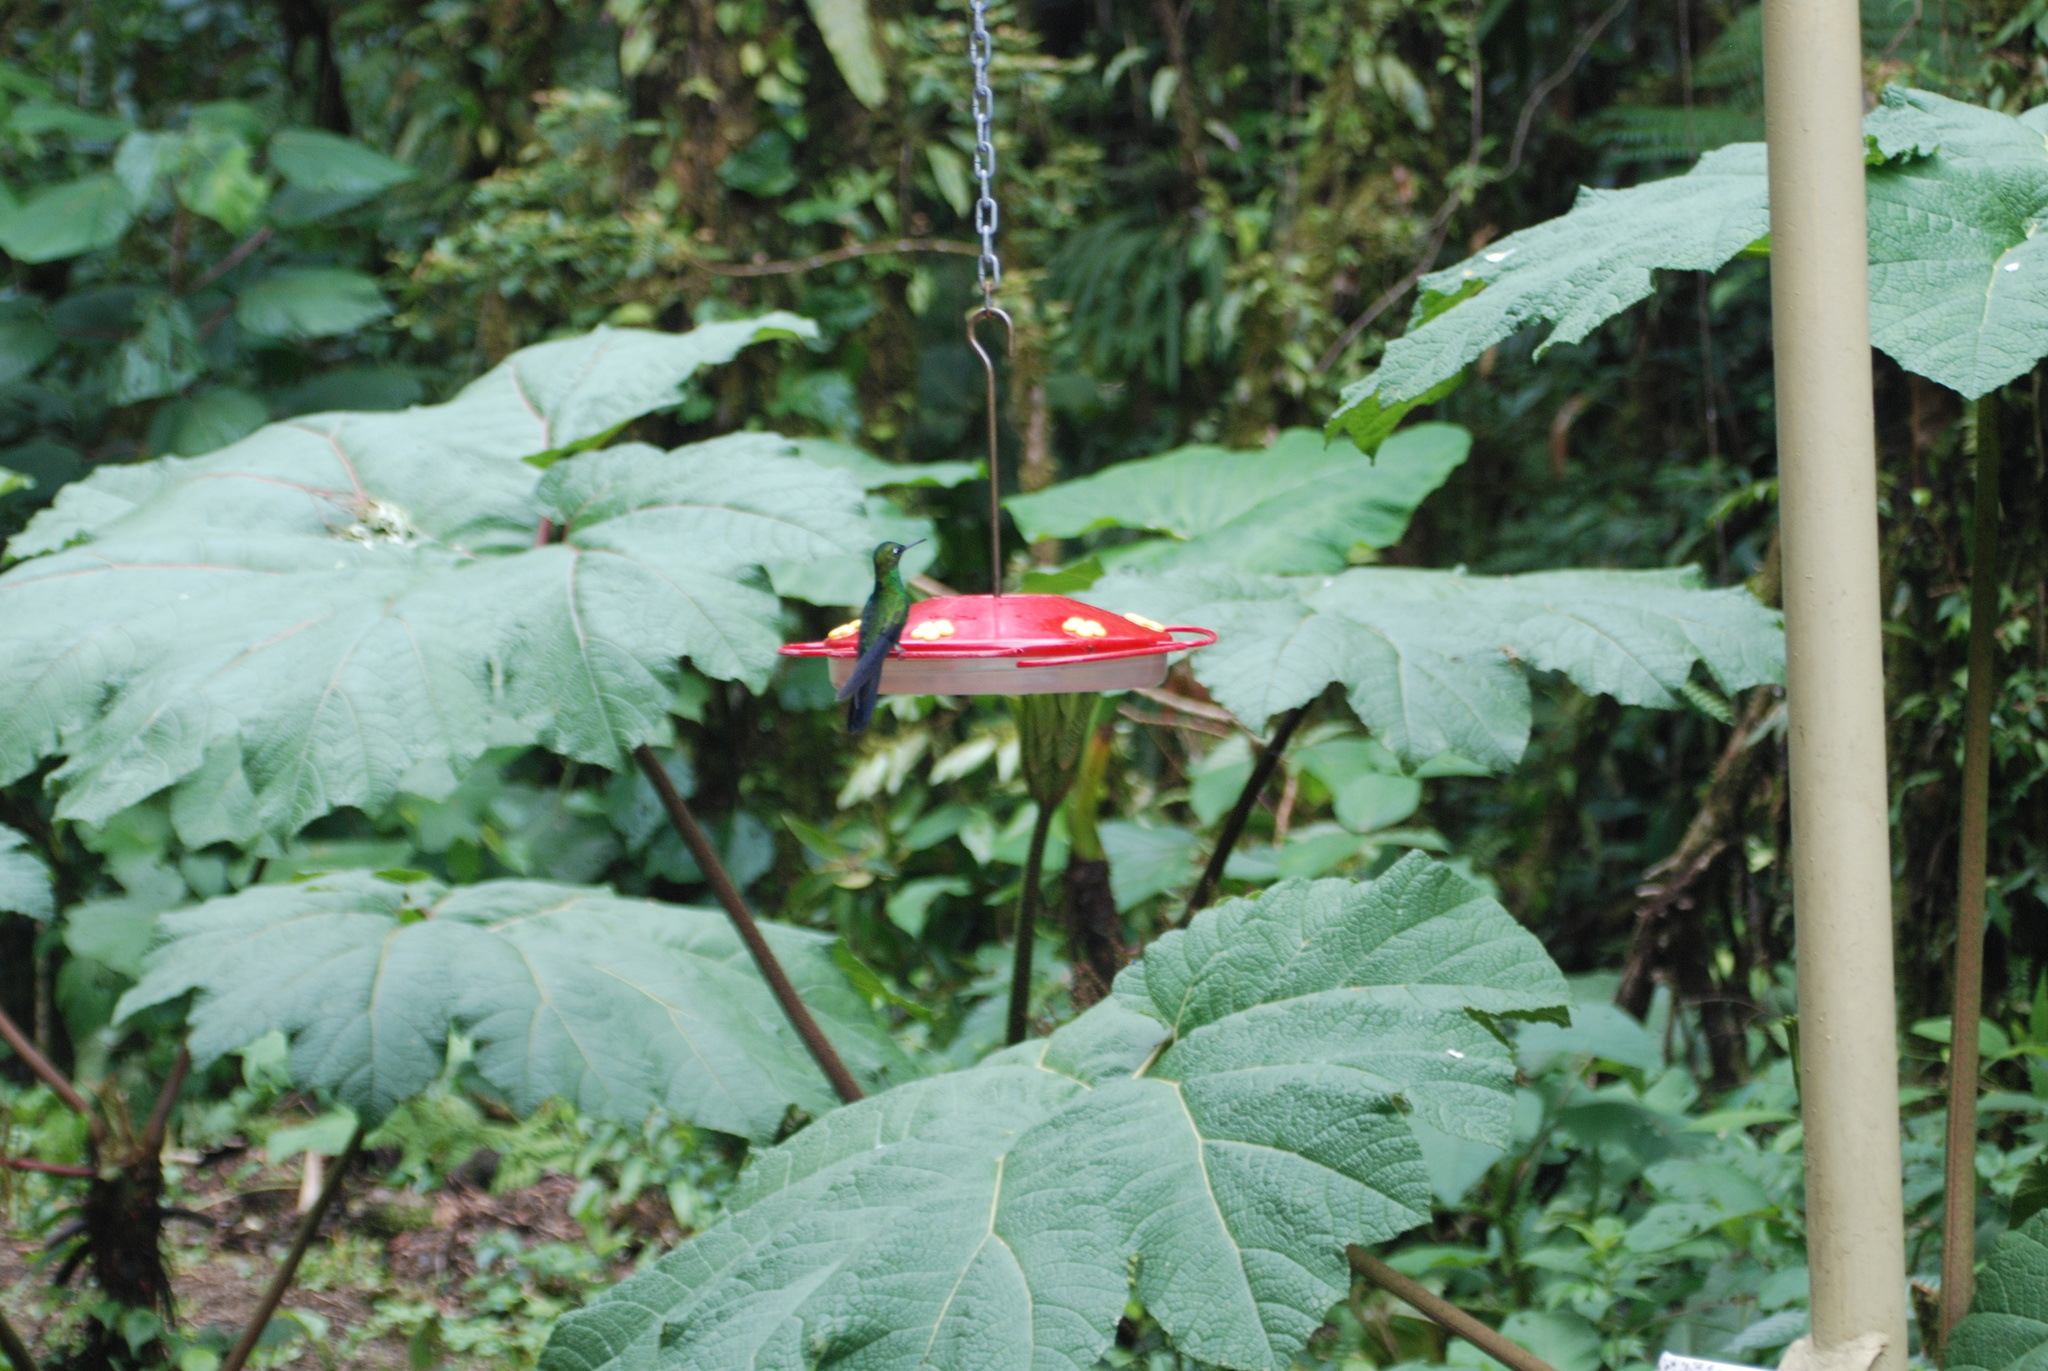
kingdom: Animalia
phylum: Chordata
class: Aves
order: Apodiformes
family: Trochilidae
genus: Heliodoxa
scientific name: Heliodoxa jacula
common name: Green-crowned brilliant
